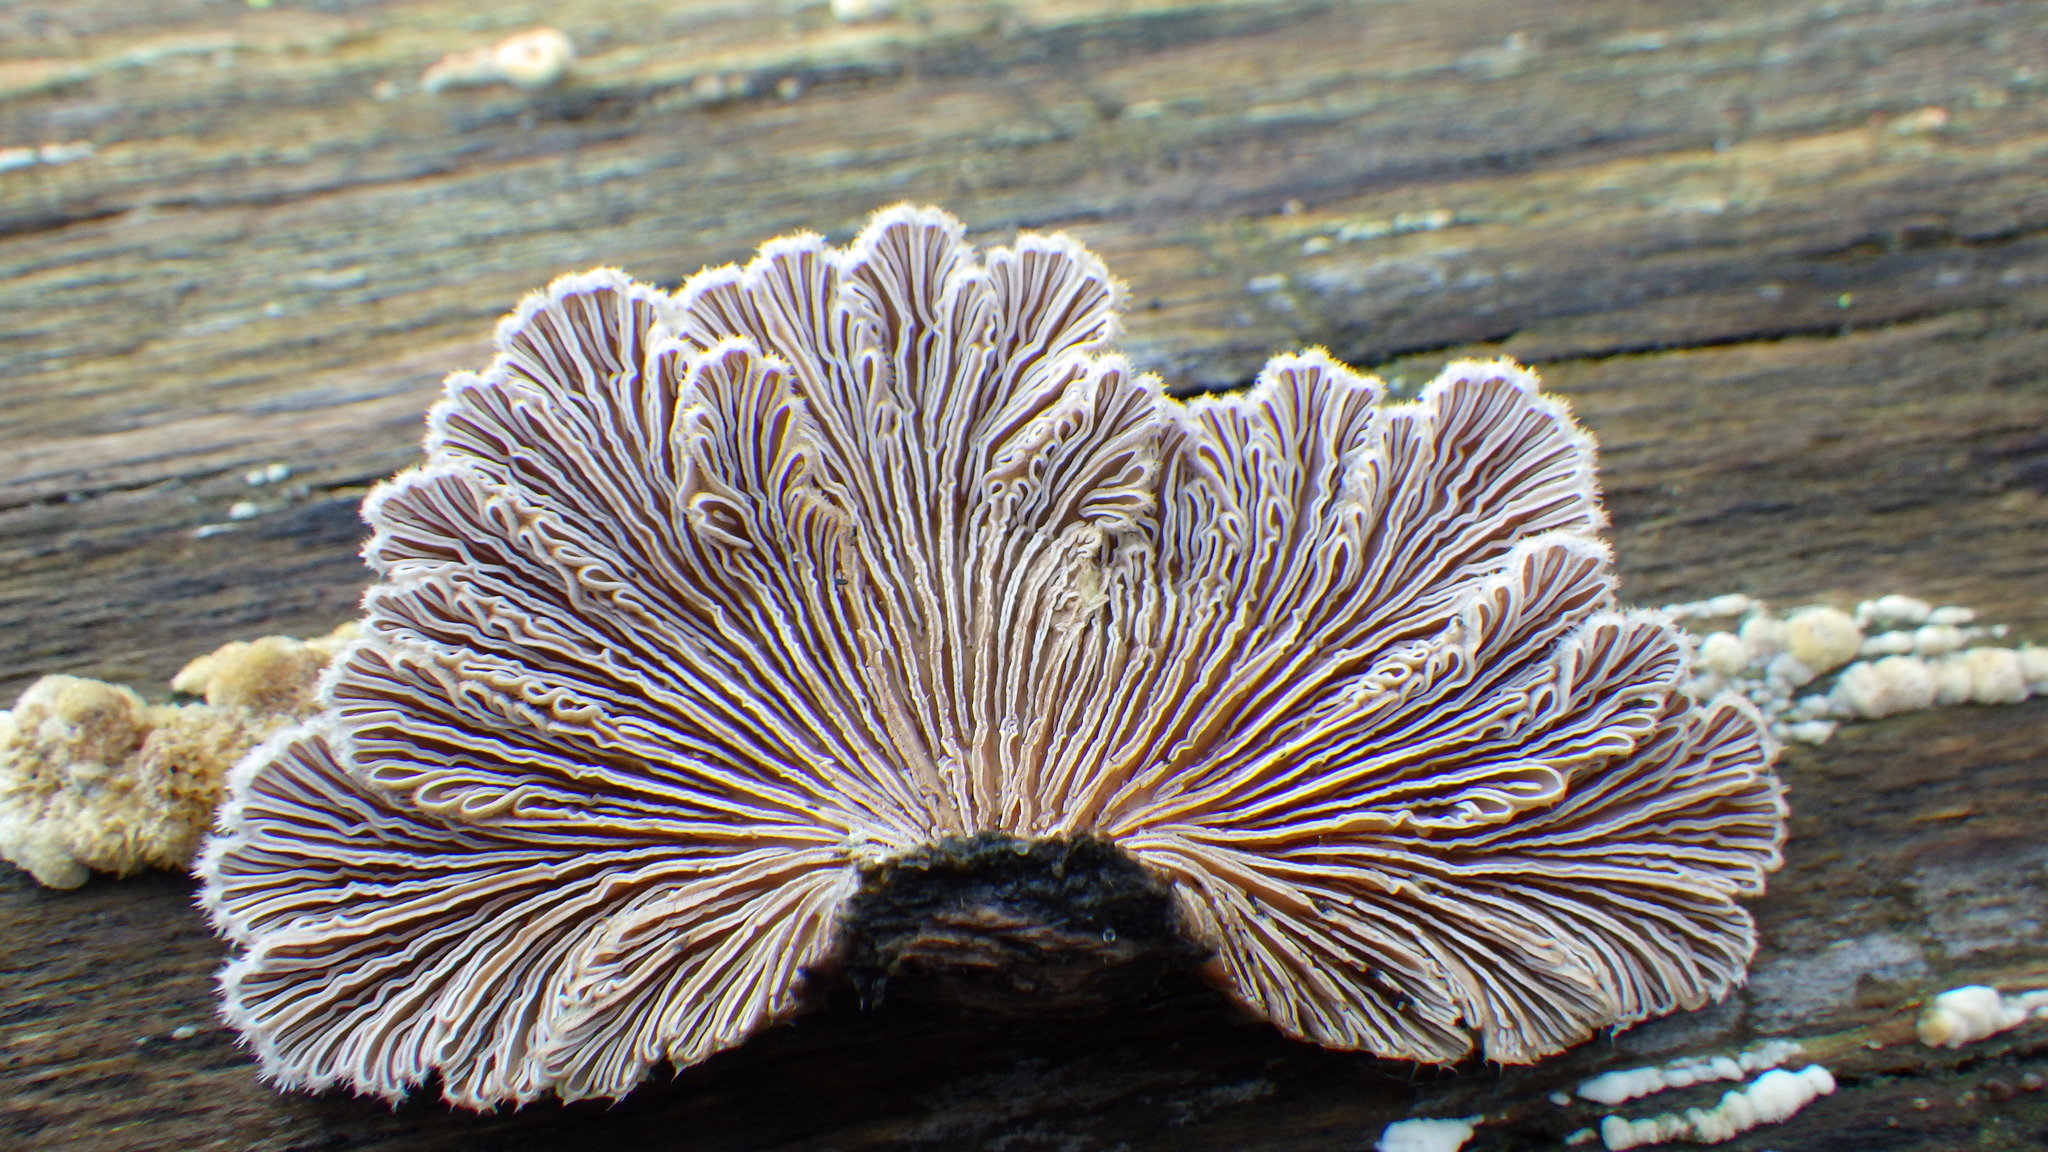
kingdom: Fungi
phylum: Basidiomycota
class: Agaricomycetes
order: Agaricales
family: Schizophyllaceae
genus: Schizophyllum
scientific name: Schizophyllum commune
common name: Common porecrust
